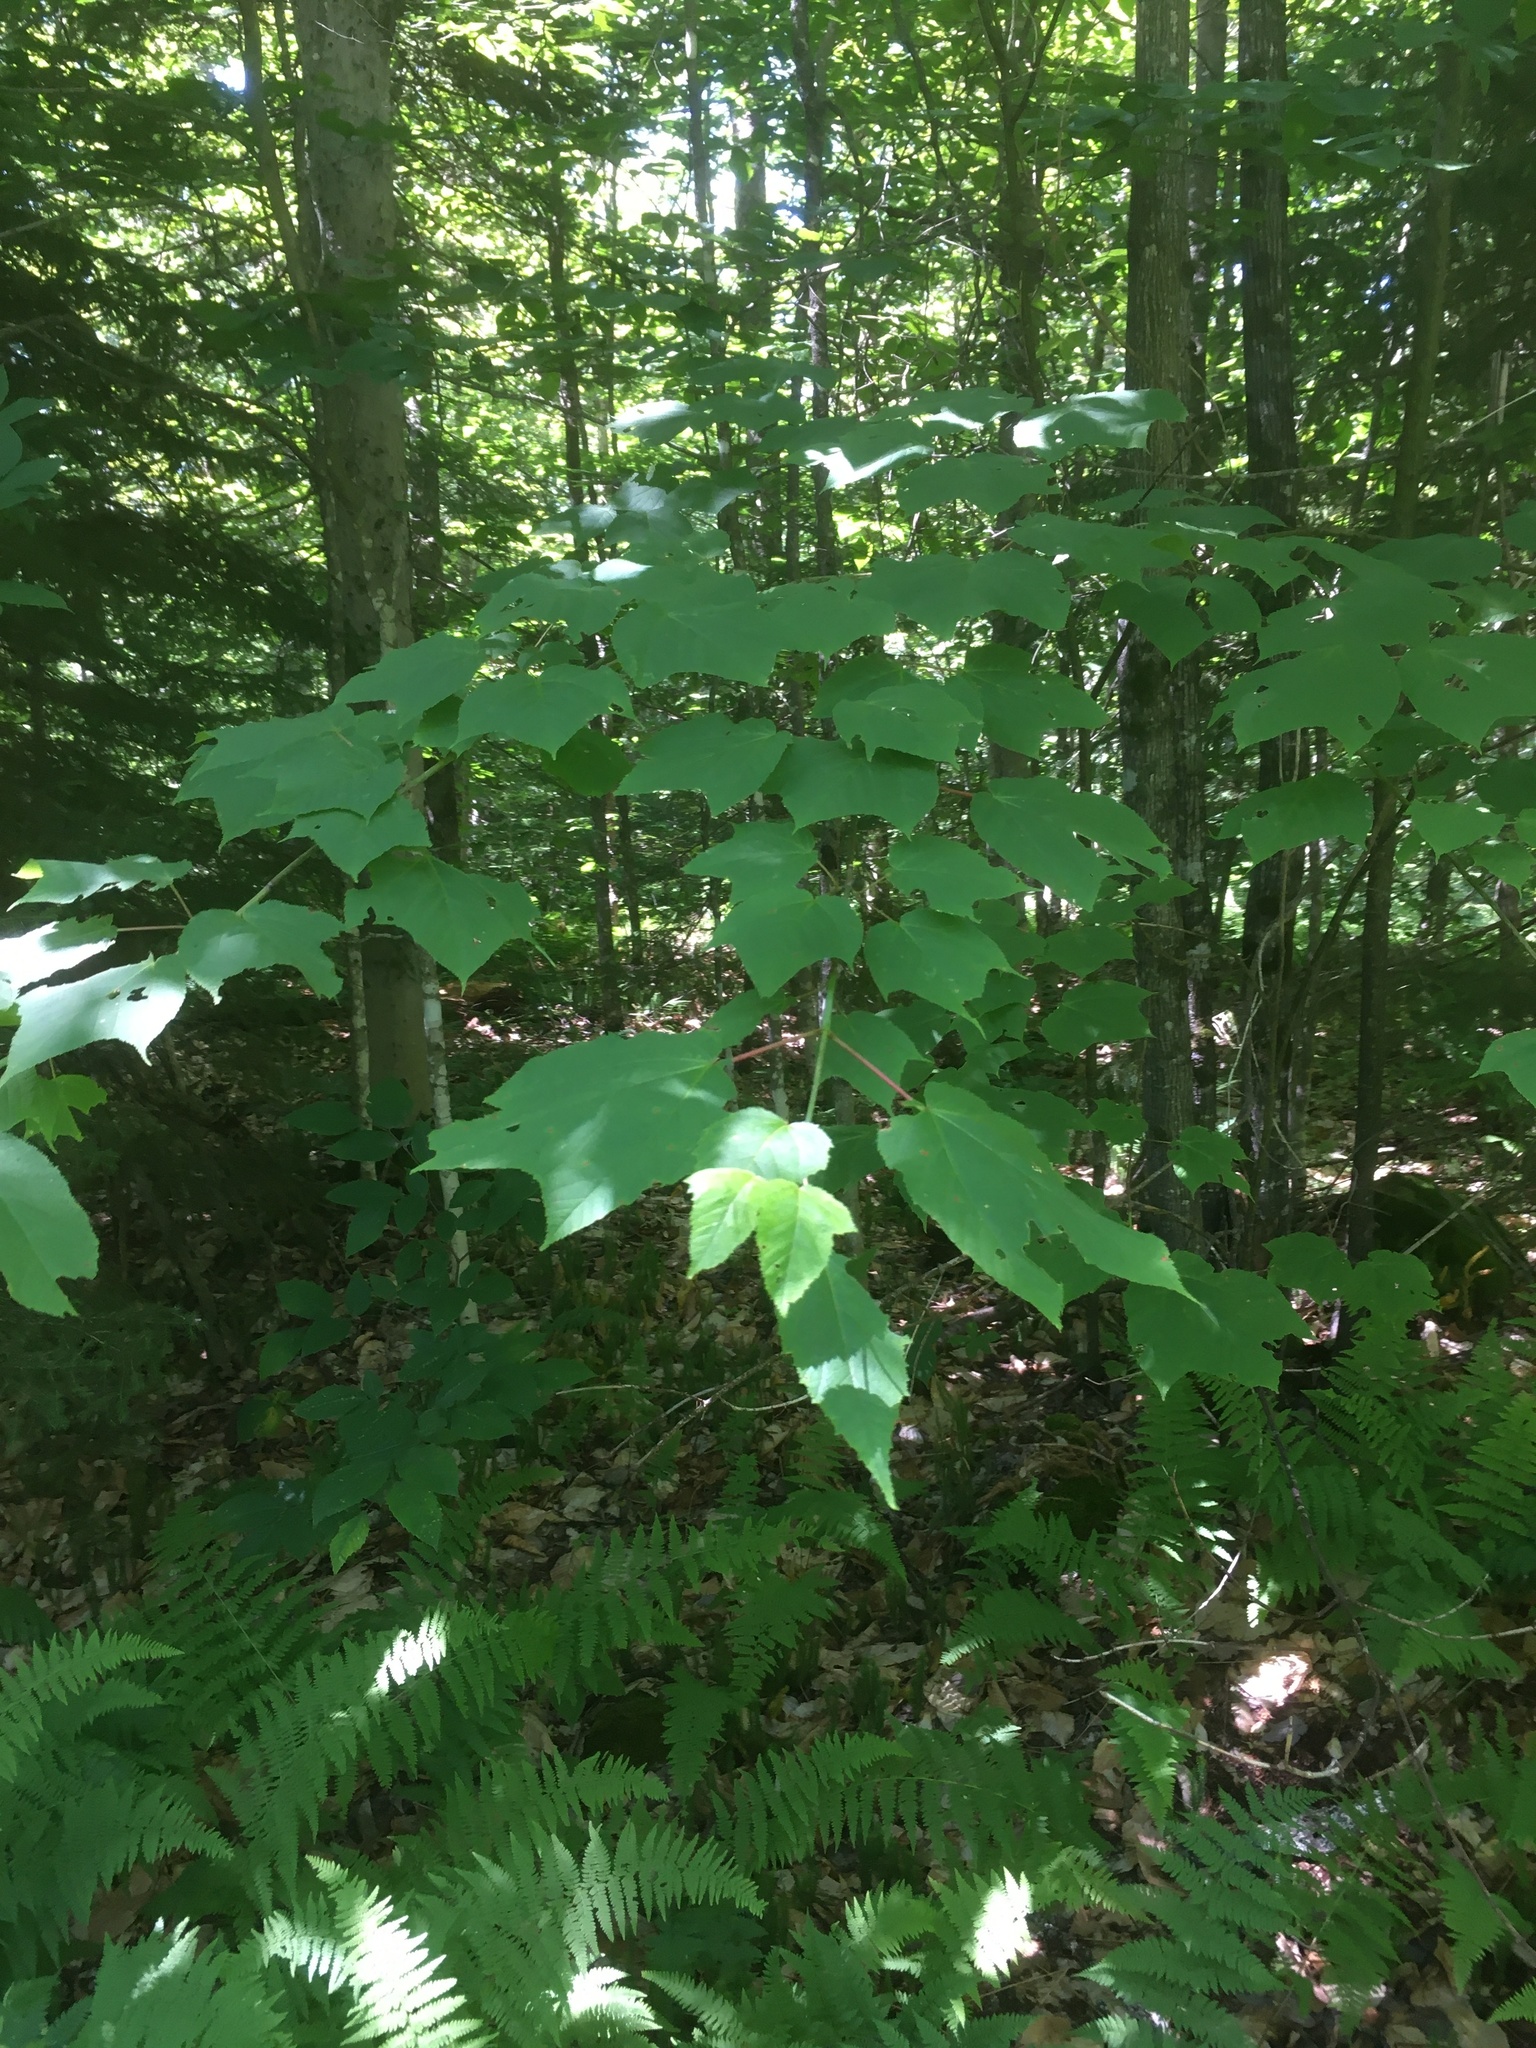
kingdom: Plantae
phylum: Tracheophyta
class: Magnoliopsida
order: Sapindales
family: Sapindaceae
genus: Acer
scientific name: Acer pensylvanicum
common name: Moosewood
